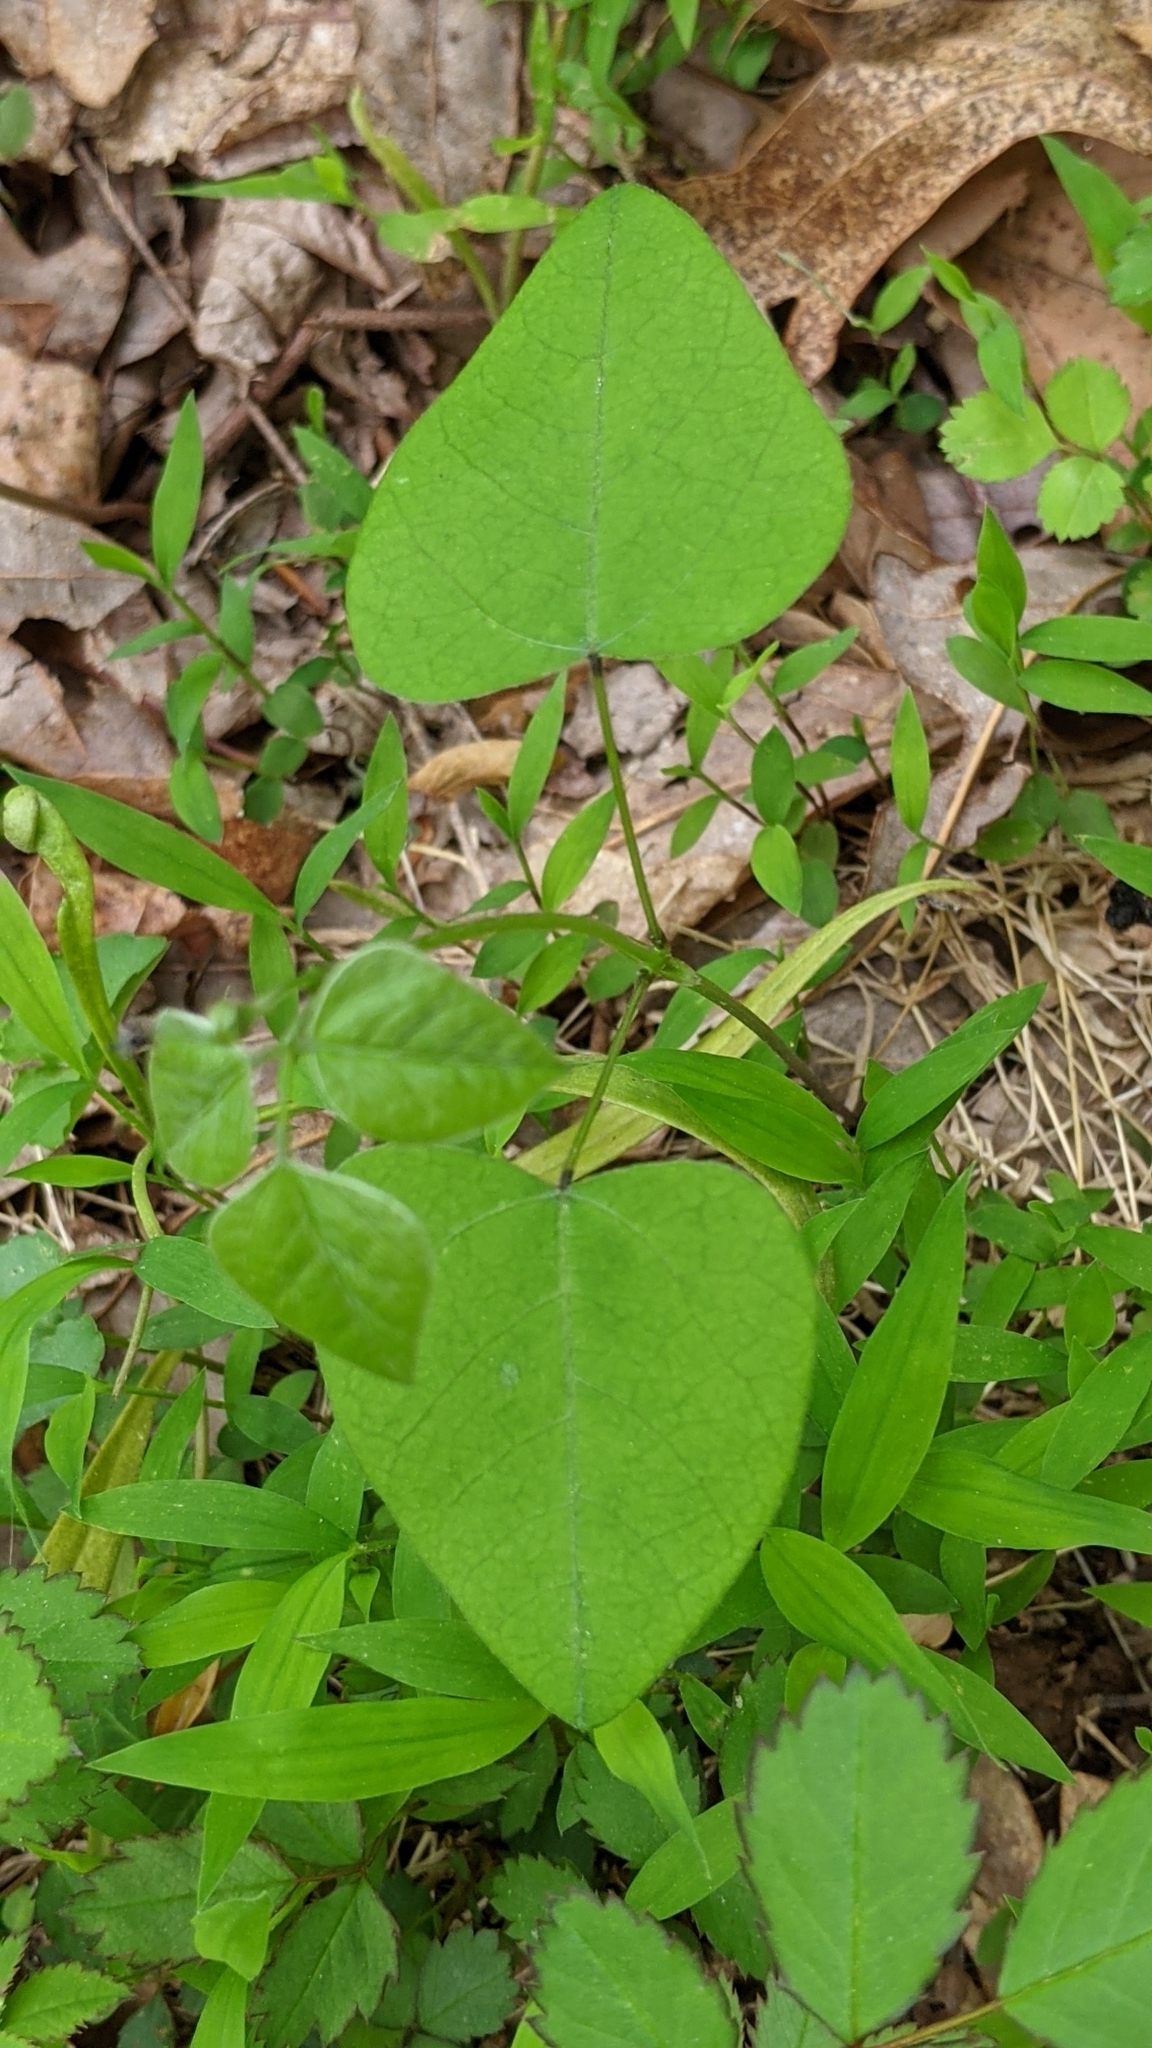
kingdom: Plantae
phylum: Tracheophyta
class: Magnoliopsida
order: Fabales
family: Fabaceae
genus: Amphicarpaea
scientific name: Amphicarpaea bracteata
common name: American hog peanut
